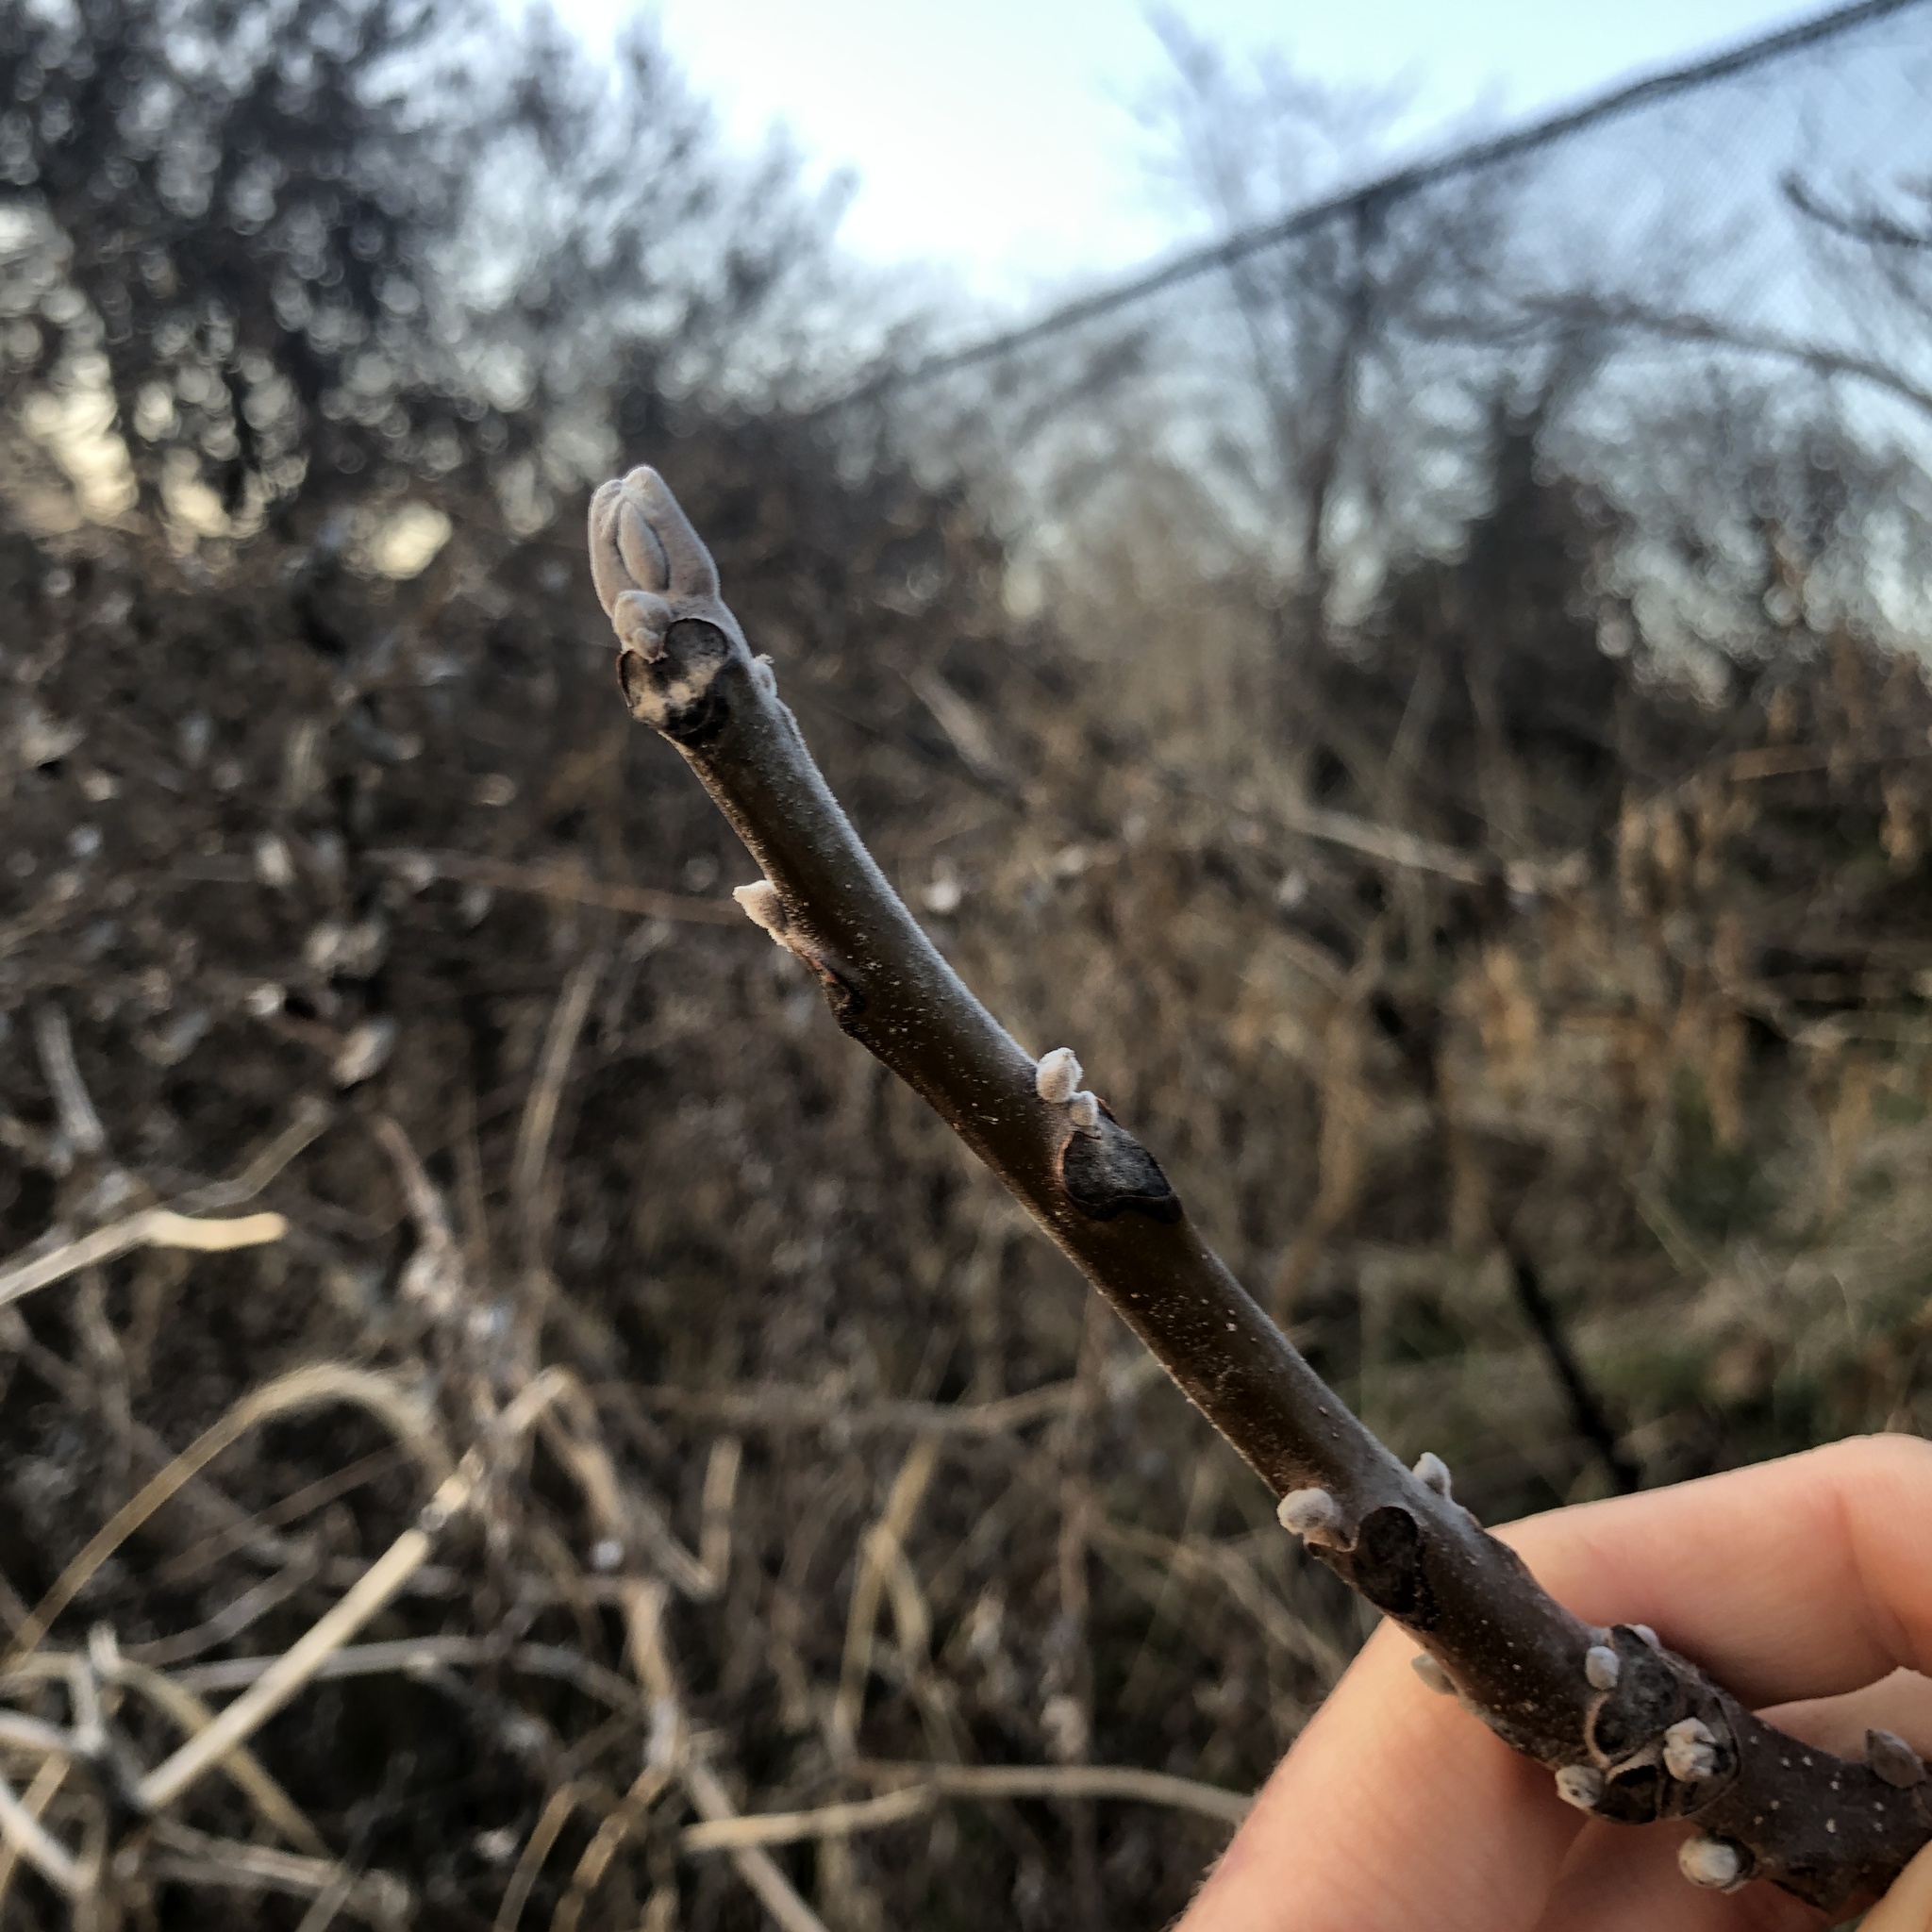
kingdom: Plantae
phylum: Tracheophyta
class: Magnoliopsida
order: Fagales
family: Juglandaceae
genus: Juglans
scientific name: Juglans nigra
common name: Black walnut
